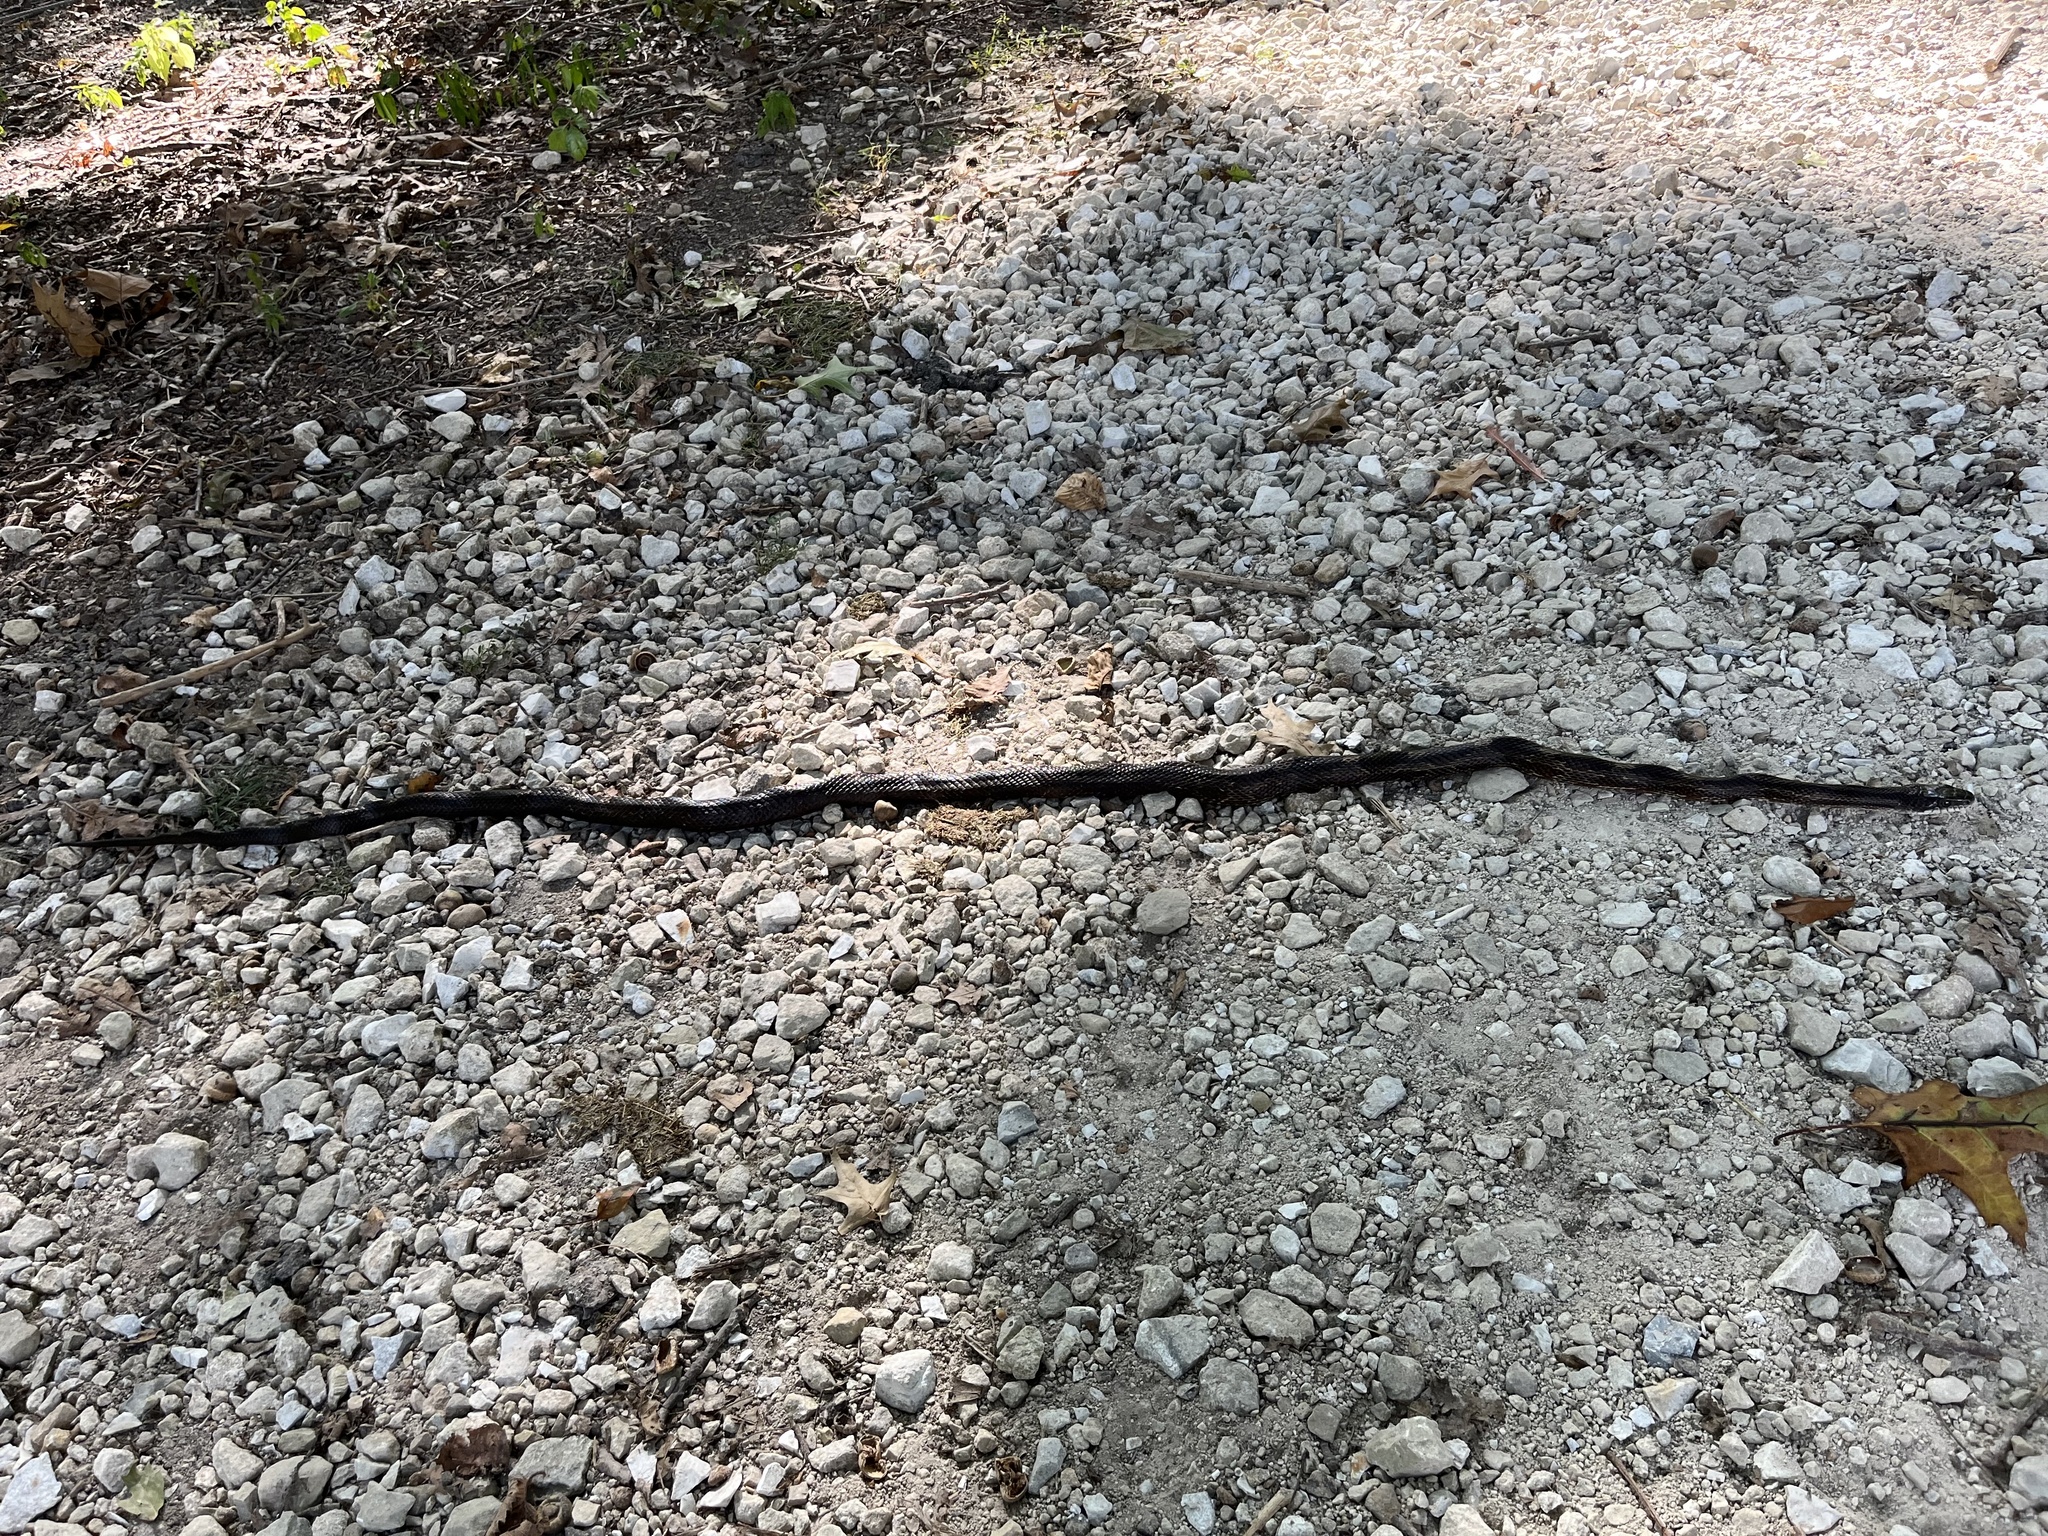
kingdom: Animalia
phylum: Chordata
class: Squamata
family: Colubridae
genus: Pantherophis
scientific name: Pantherophis spiloides
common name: Gray rat snake
